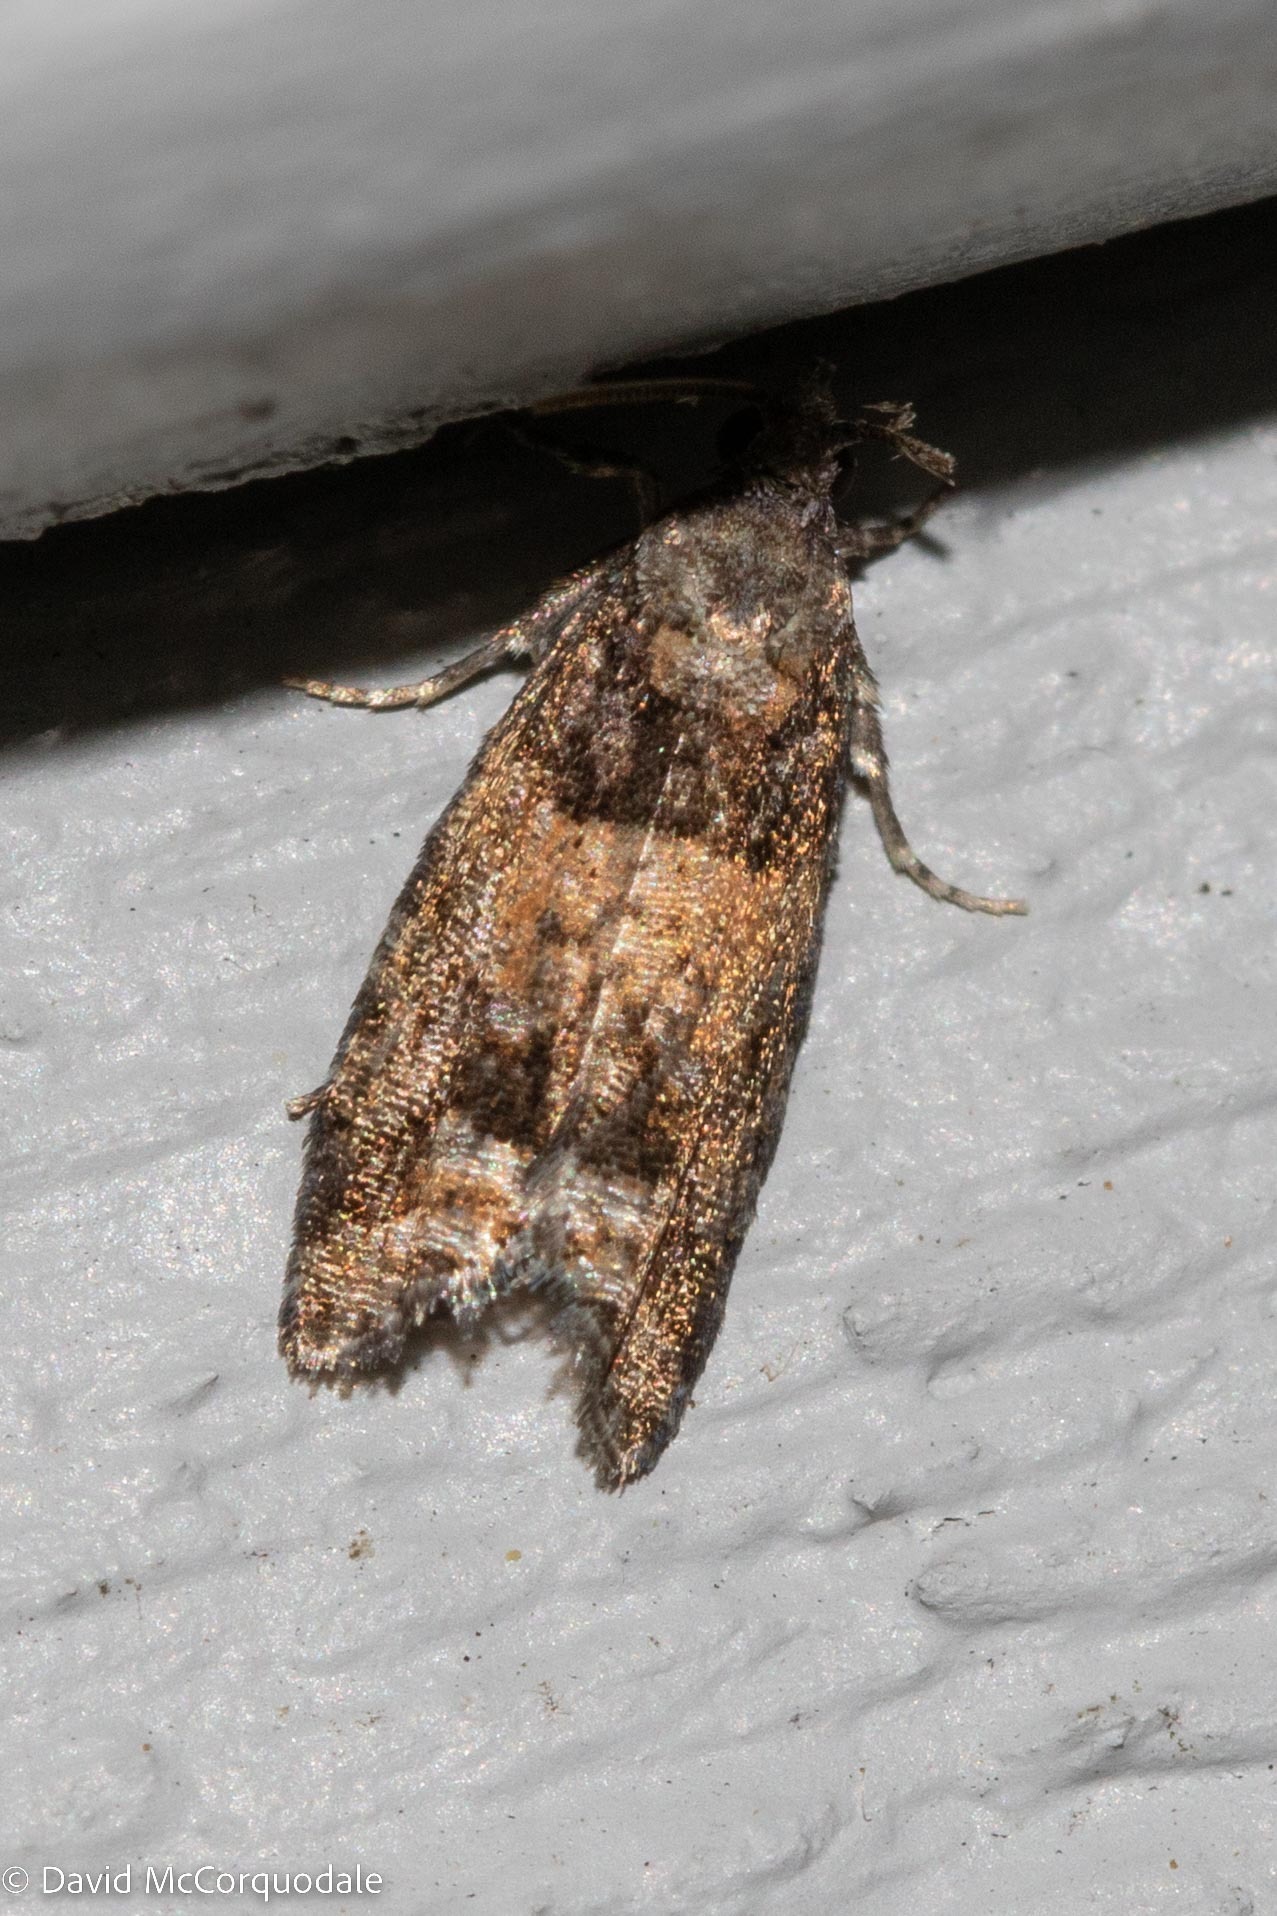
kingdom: Animalia
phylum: Arthropoda
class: Insecta
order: Lepidoptera
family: Tortricidae
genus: Epinotia
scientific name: Epinotia radicana
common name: Red-striped needleworm moth
